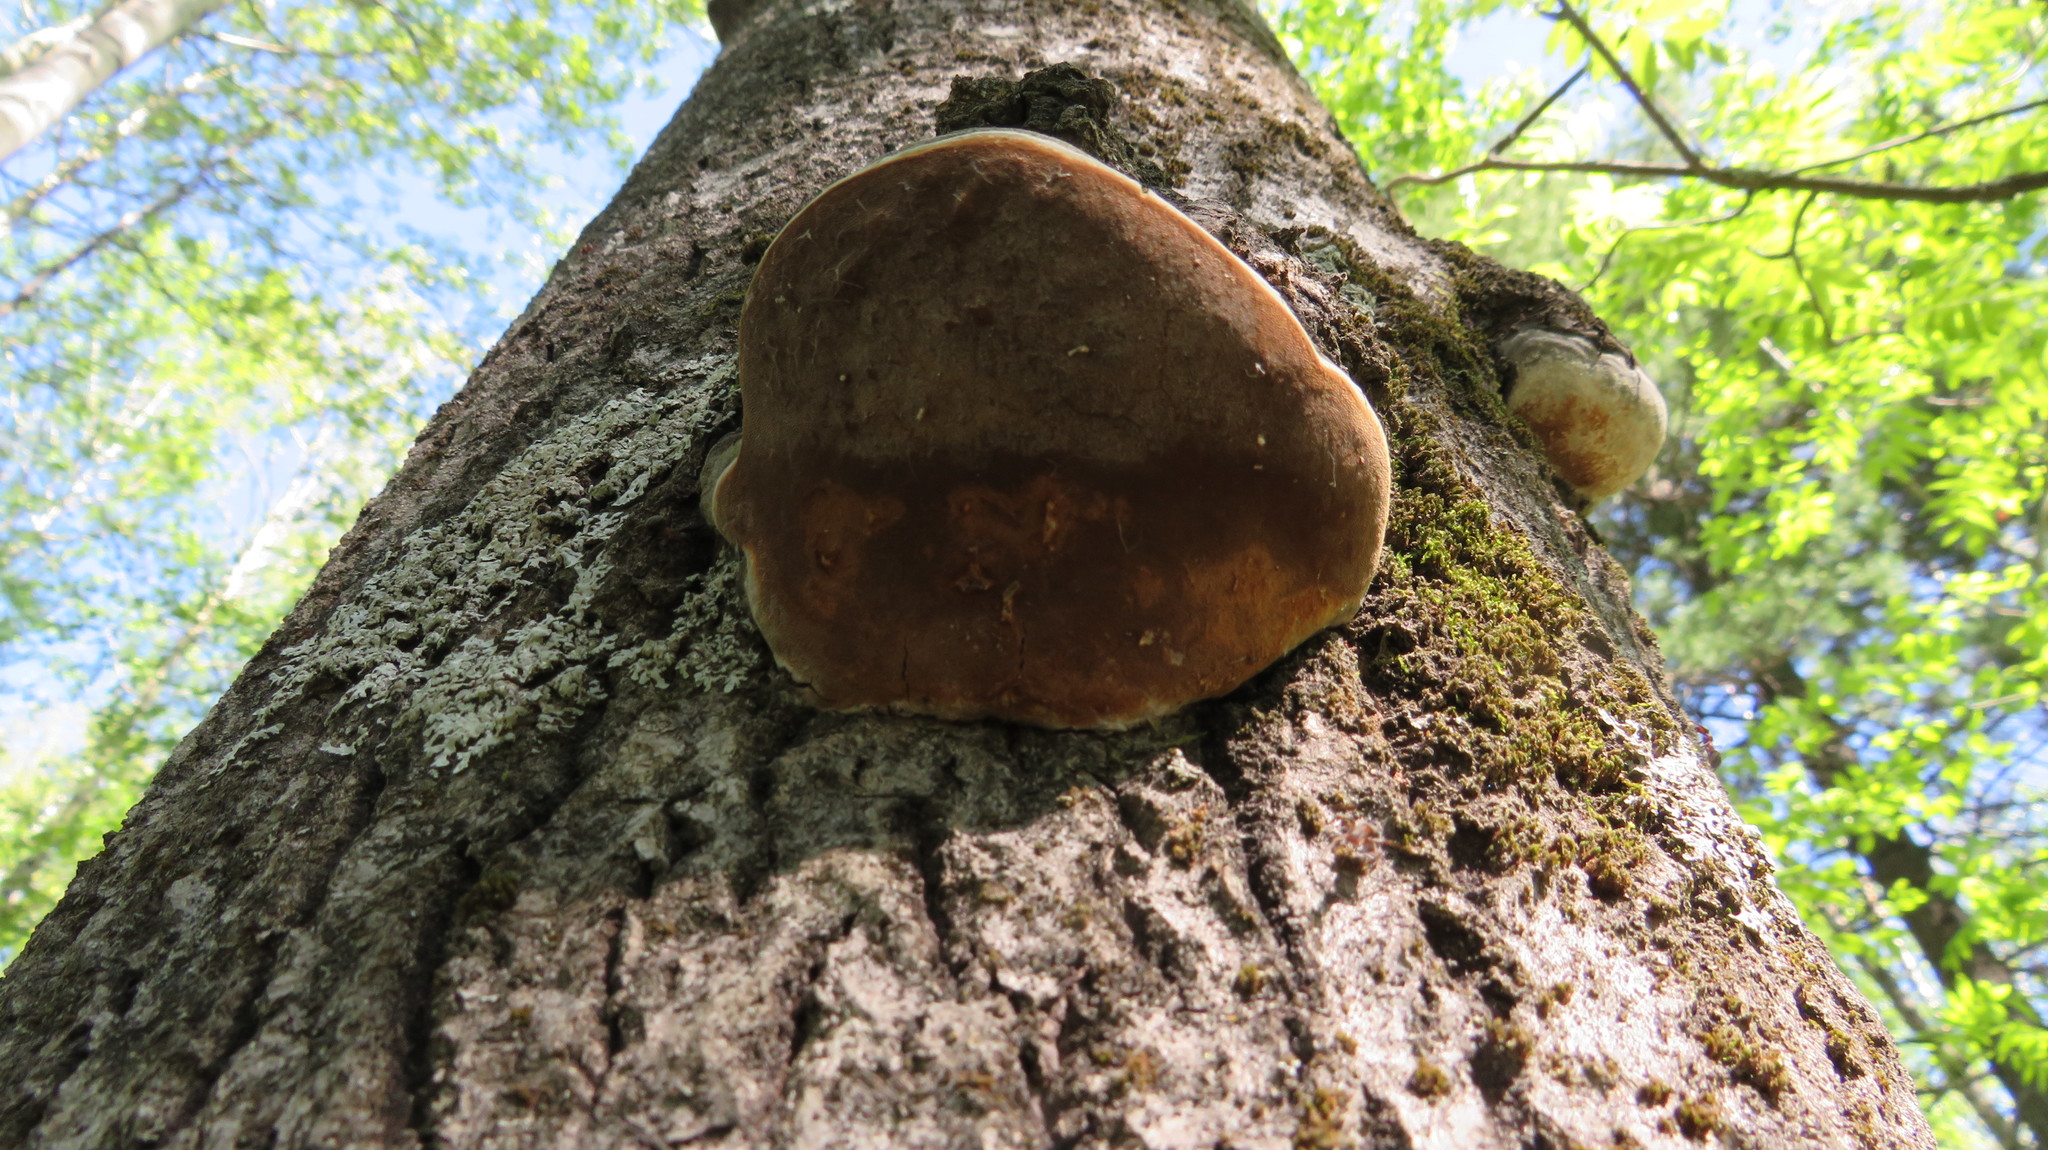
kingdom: Fungi
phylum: Basidiomycota
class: Agaricomycetes
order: Hymenochaetales
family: Hymenochaetaceae
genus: Phellinus
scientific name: Phellinus tremulae
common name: Aspen bracket
